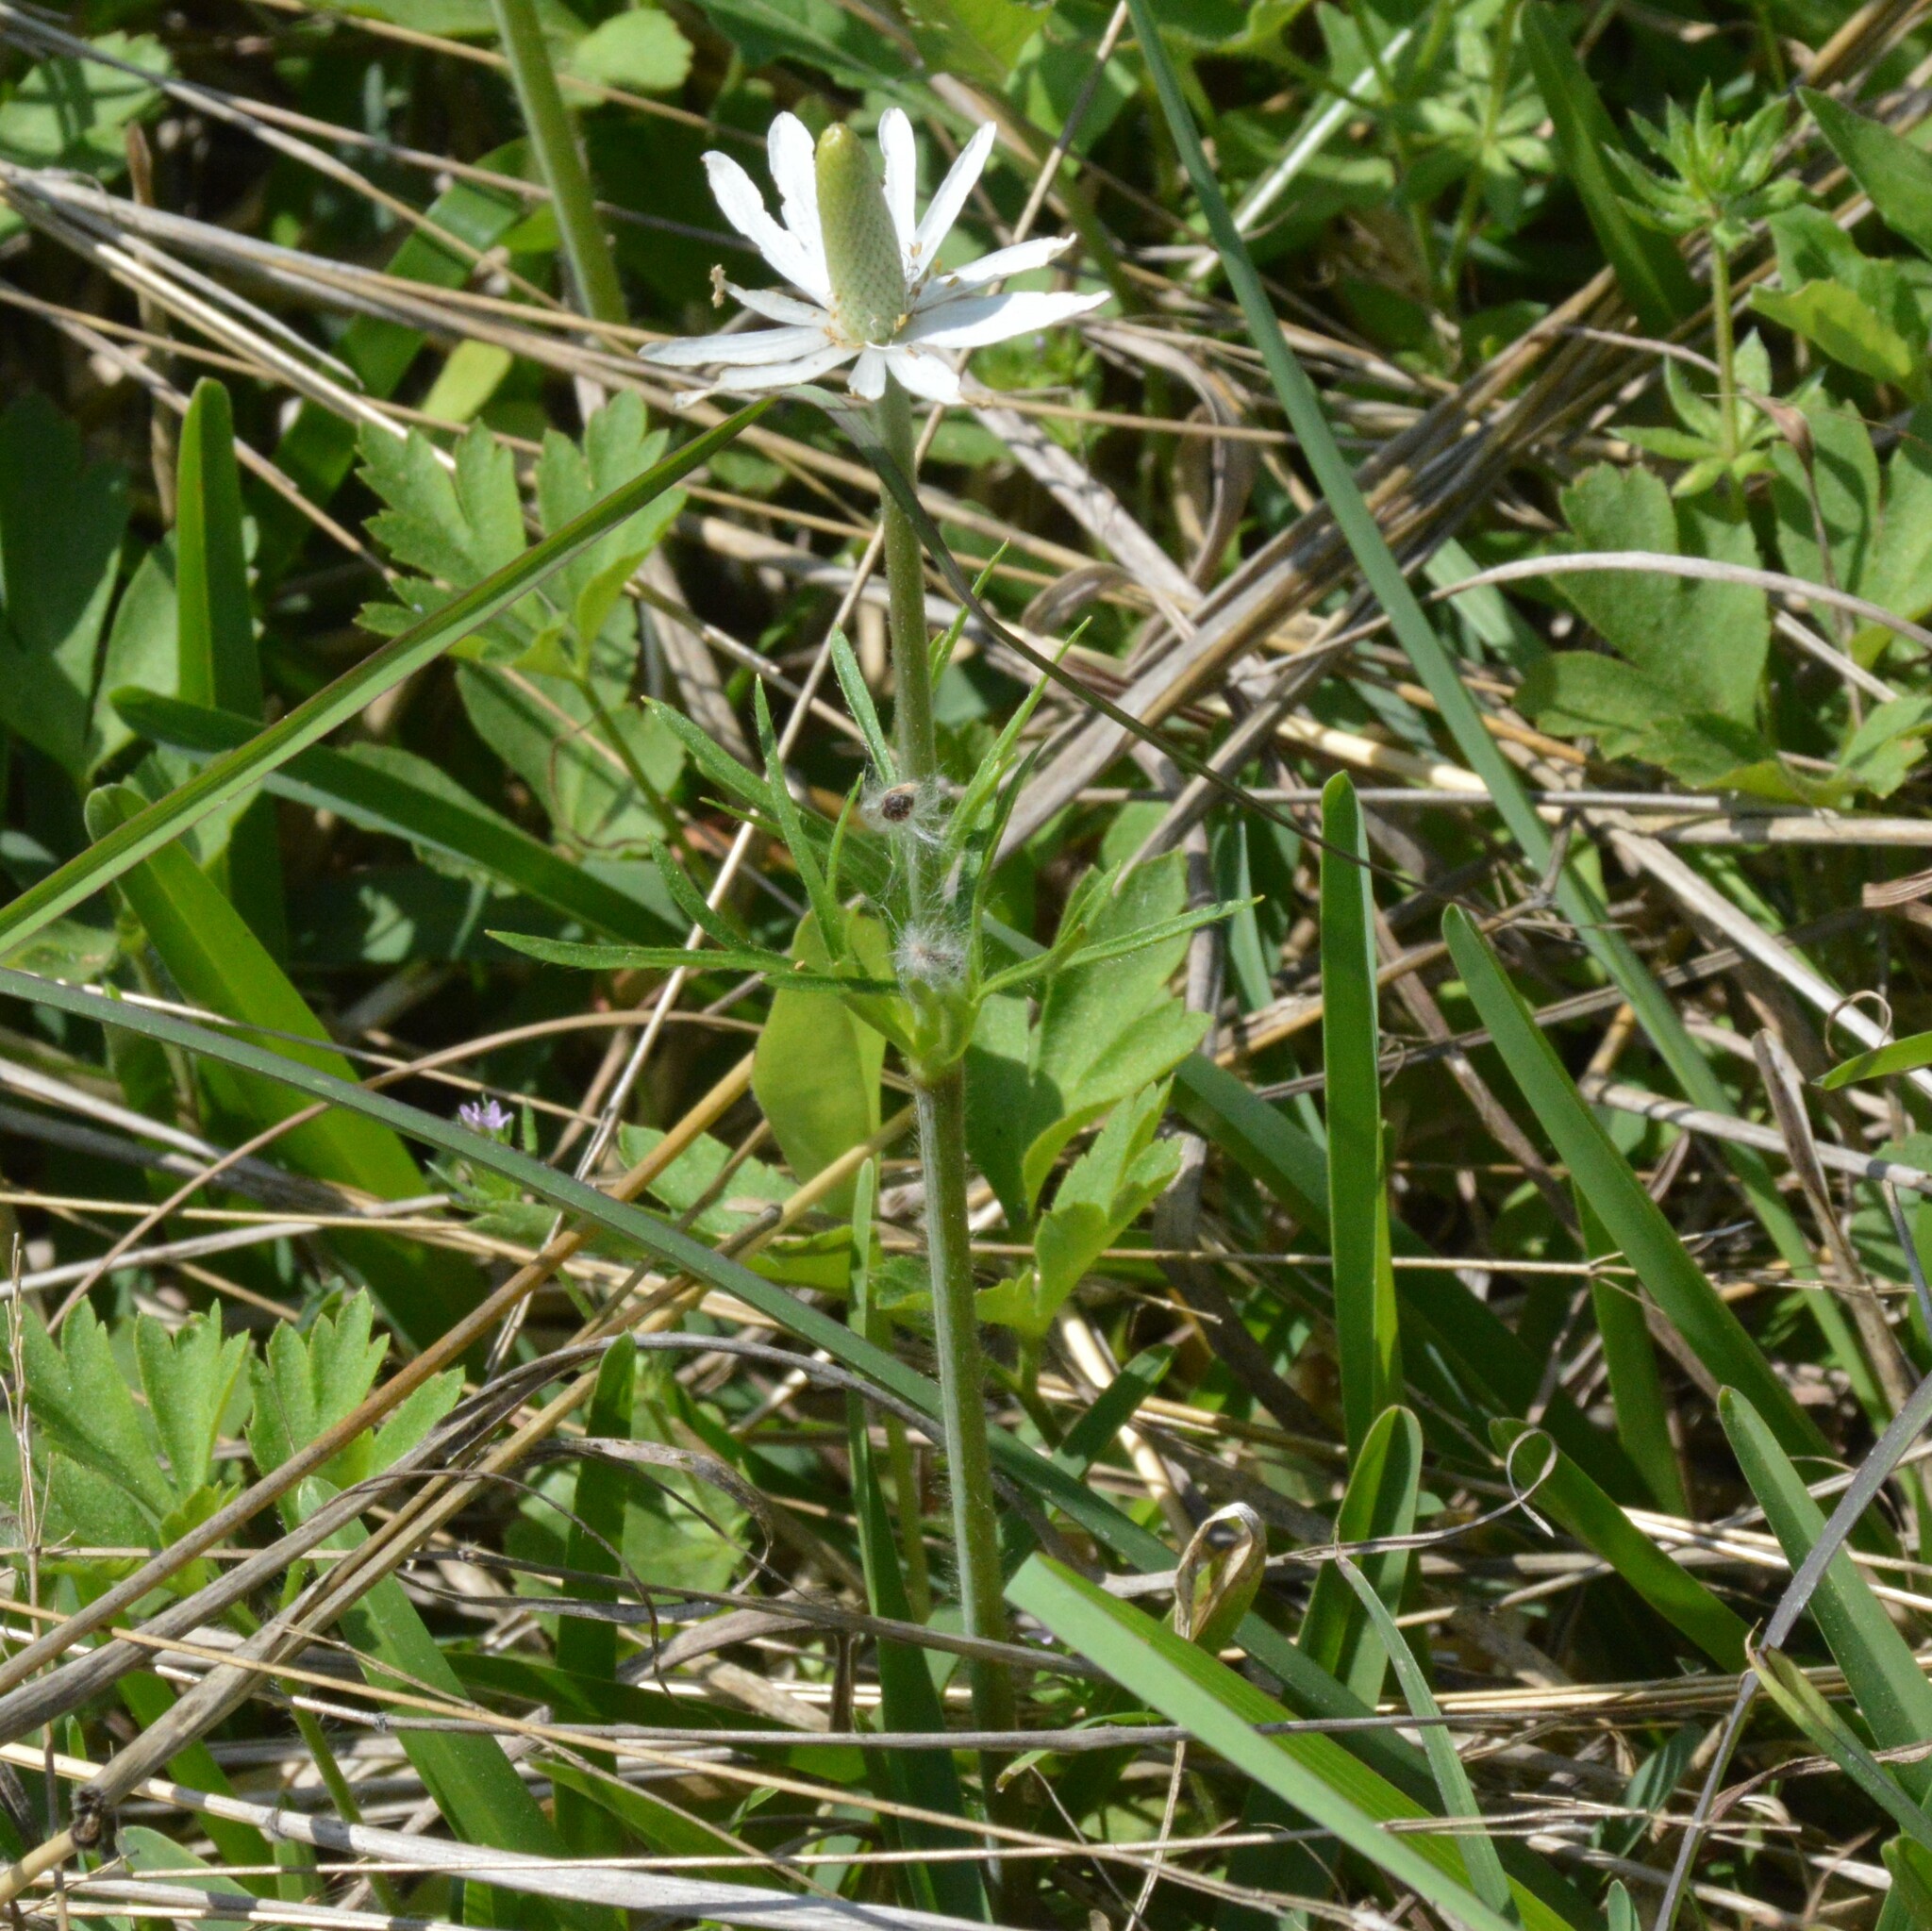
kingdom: Plantae
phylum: Tracheophyta
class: Magnoliopsida
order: Ranunculales
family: Ranunculaceae
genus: Anemone
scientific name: Anemone berlandieri
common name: Ten-petal anemone
